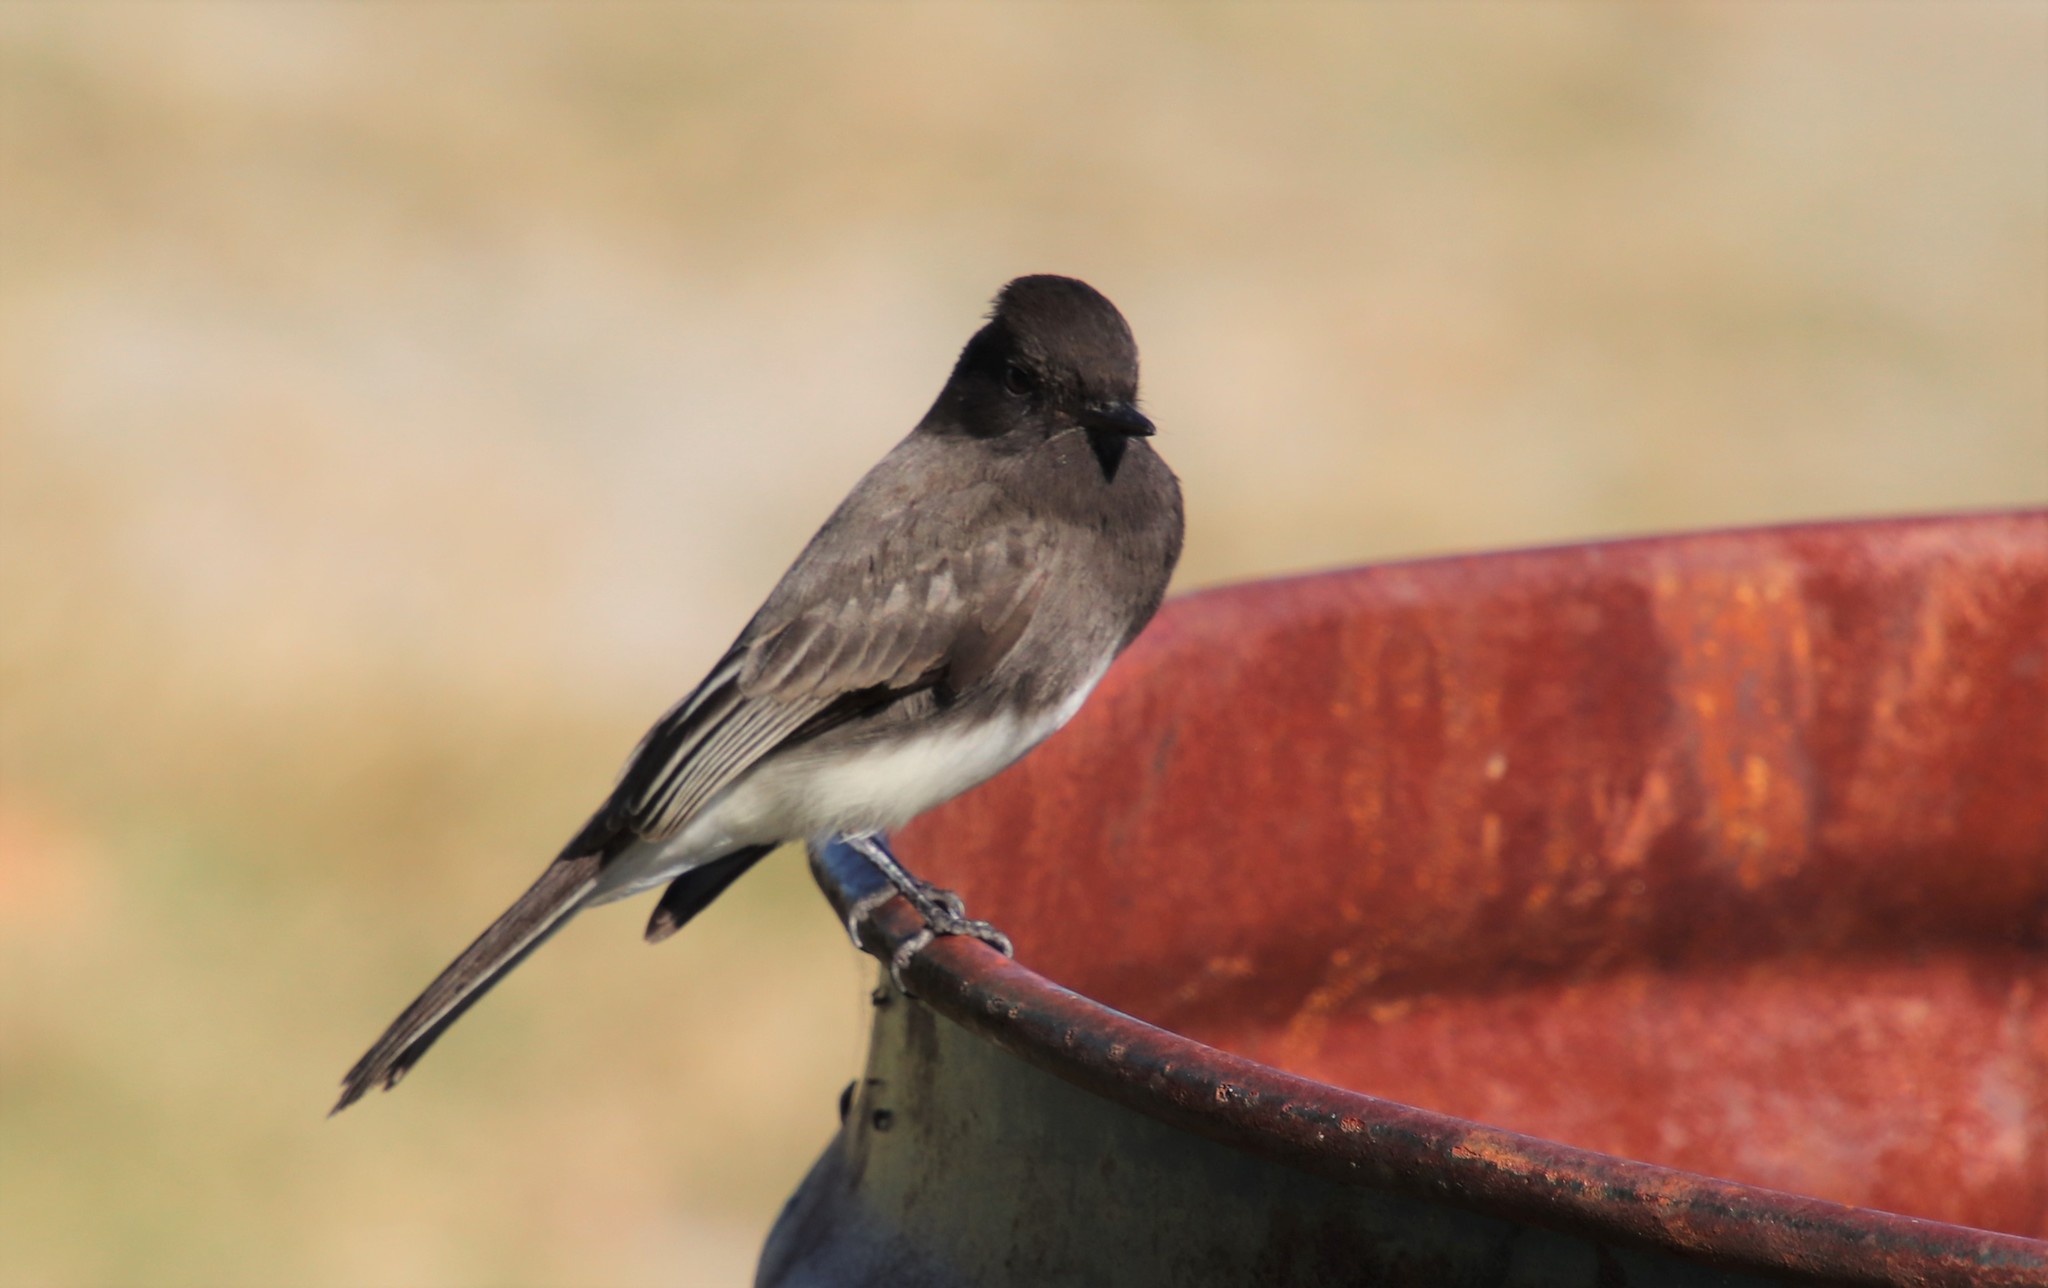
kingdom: Animalia
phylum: Chordata
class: Aves
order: Passeriformes
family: Tyrannidae
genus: Sayornis
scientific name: Sayornis nigricans
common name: Black phoebe
